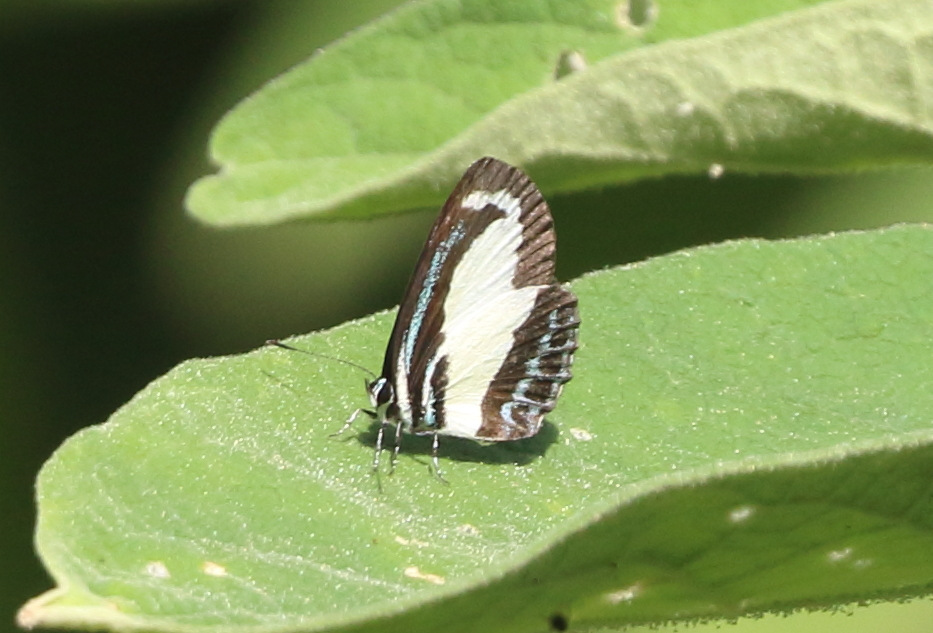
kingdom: Animalia
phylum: Arthropoda
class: Insecta
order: Lepidoptera
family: Lycaenidae
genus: Psychonotis
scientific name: Psychonotis caelius
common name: Small green banded blue
